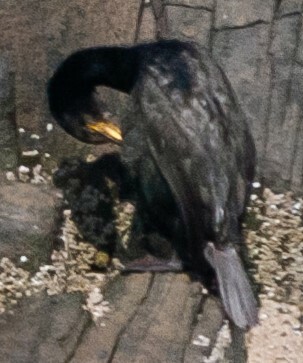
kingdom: Animalia
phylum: Chordata
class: Aves
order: Suliformes
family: Phalacrocoracidae
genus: Phalacrocorax
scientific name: Phalacrocorax aristotelis
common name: European shag
